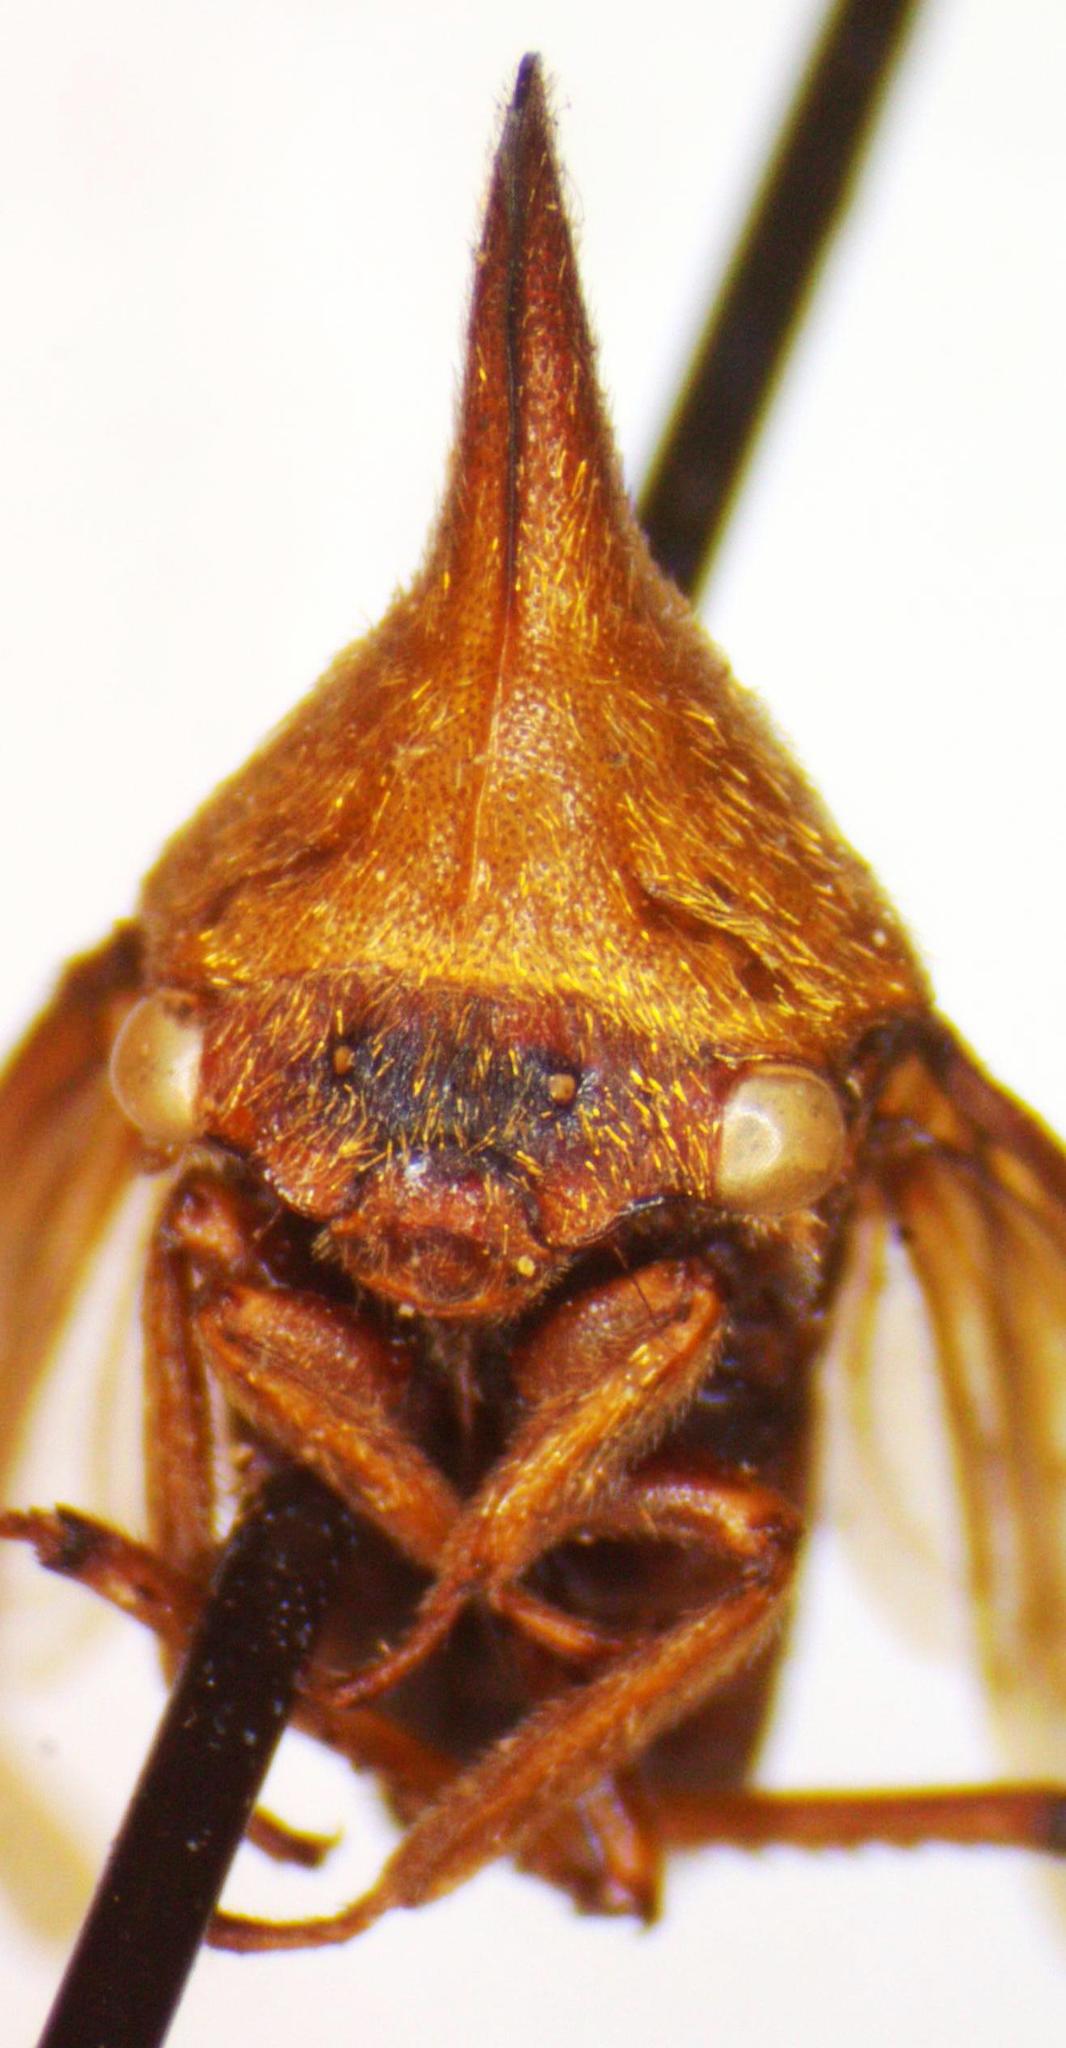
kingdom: Animalia
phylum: Arthropoda
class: Insecta
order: Hemiptera
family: Membracidae
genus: Guayaquila
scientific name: Guayaquila emarginata
